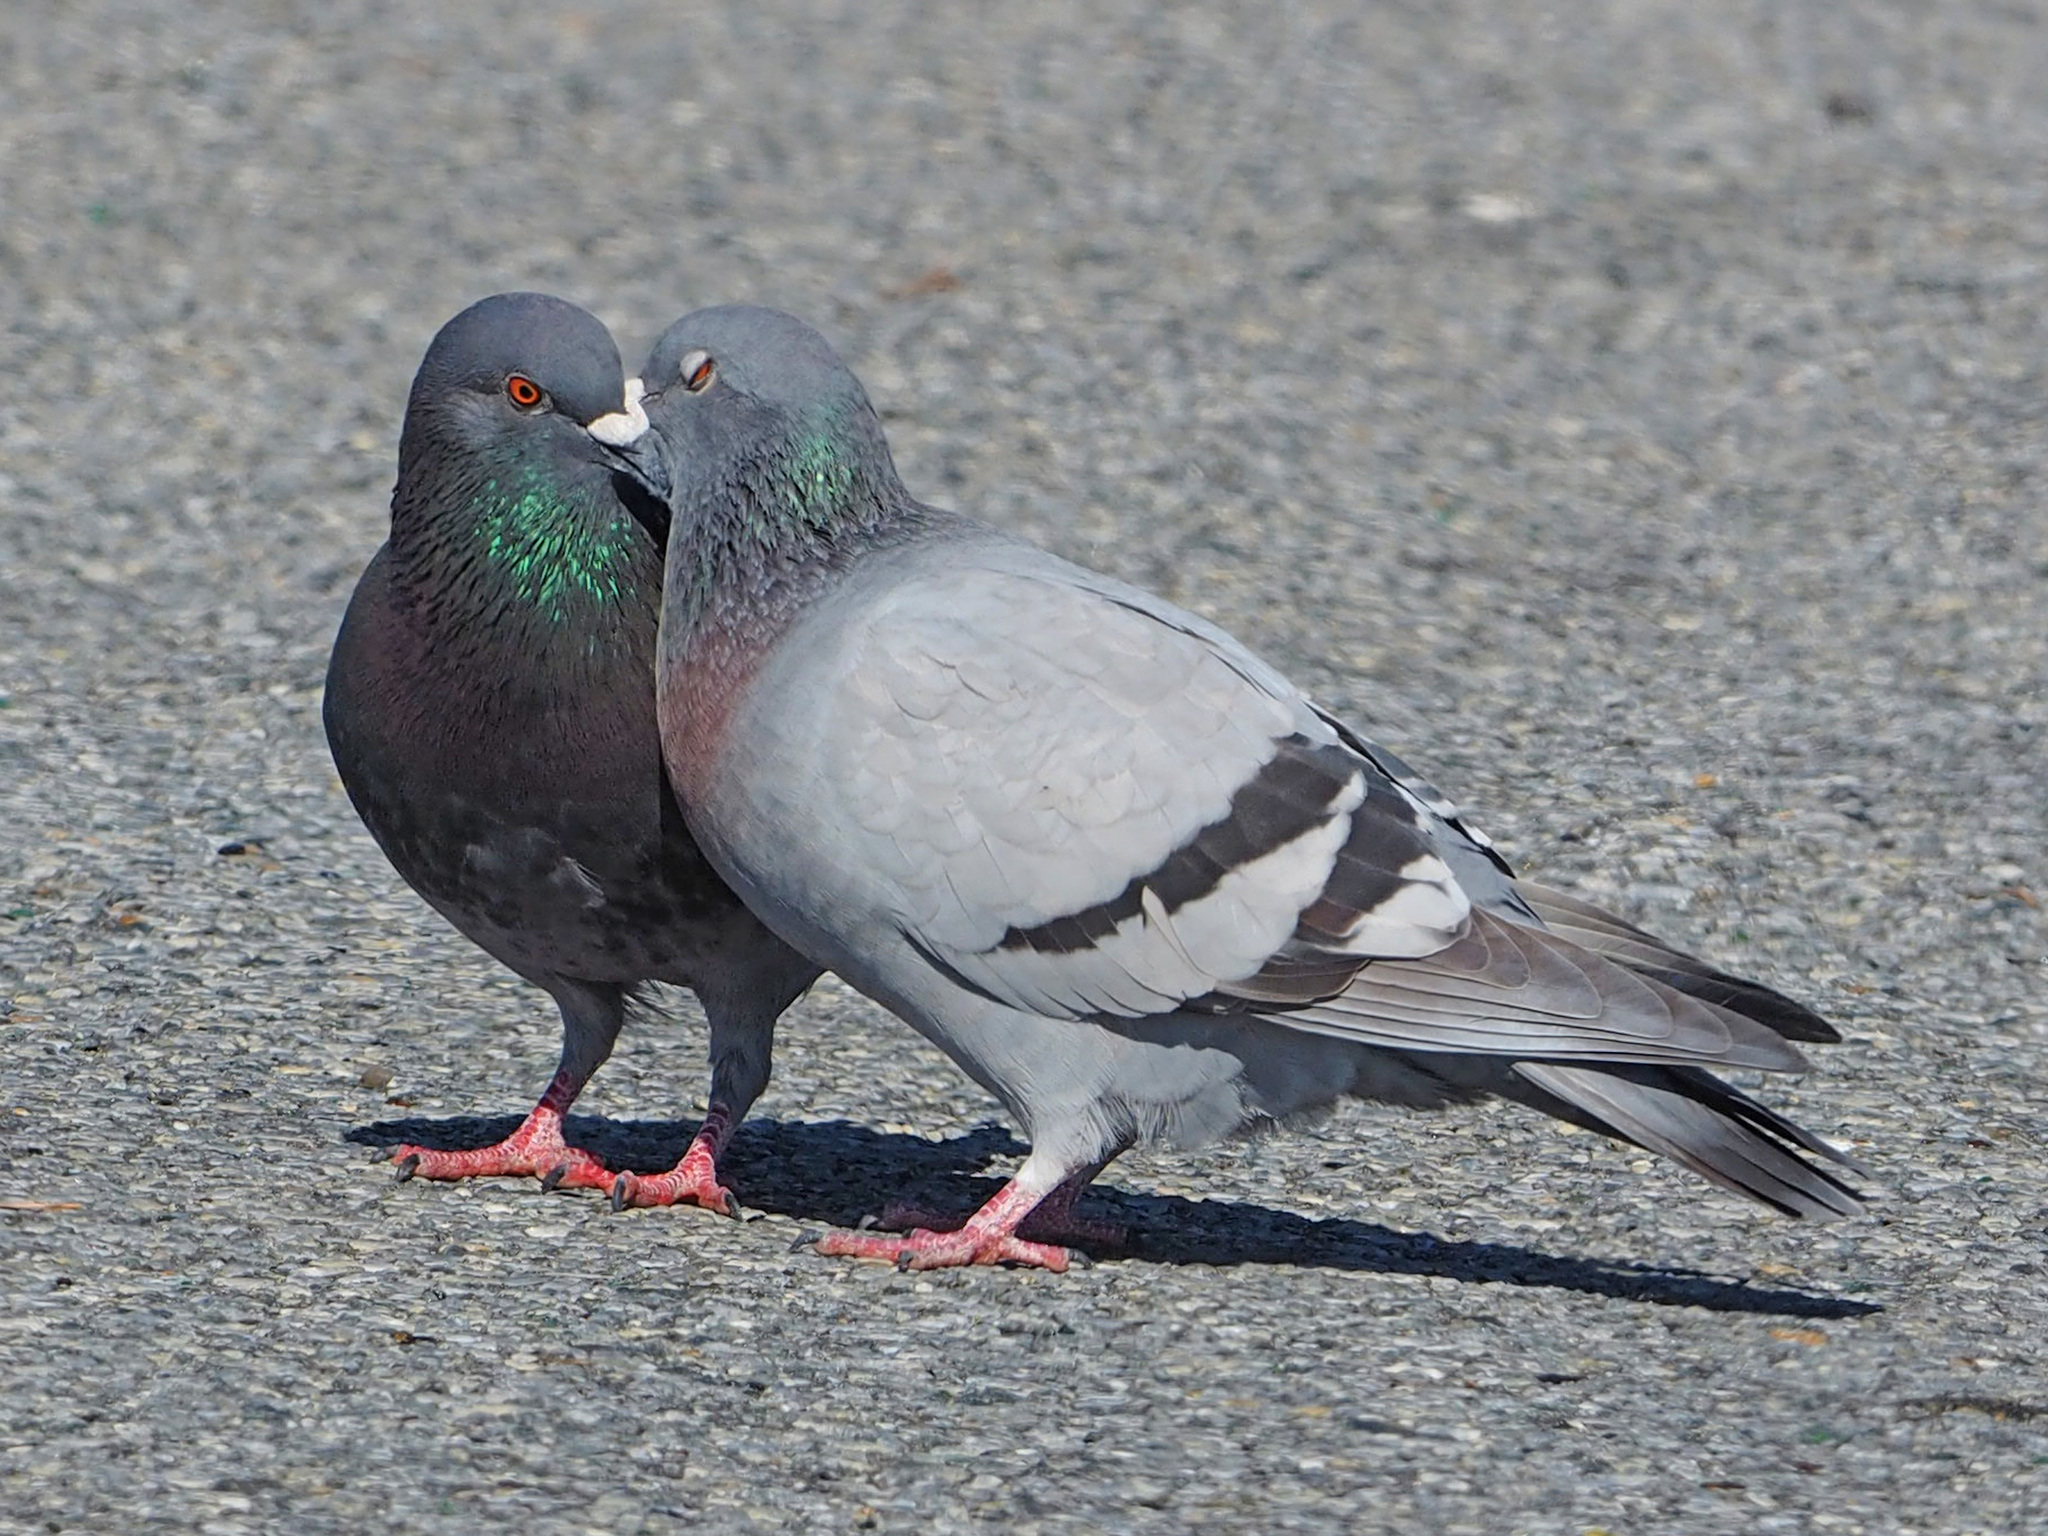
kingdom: Animalia
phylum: Chordata
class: Aves
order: Columbiformes
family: Columbidae
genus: Columba
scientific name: Columba livia
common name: Rock pigeon
